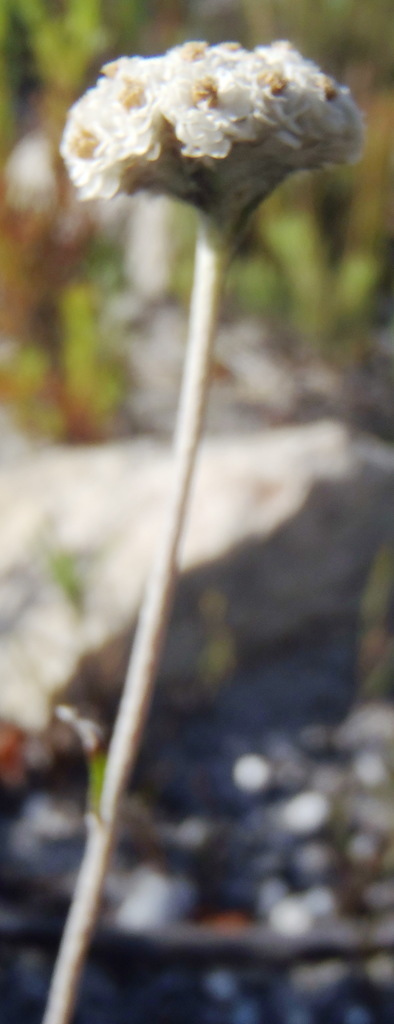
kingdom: Plantae
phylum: Tracheophyta
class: Magnoliopsida
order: Asterales
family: Asteraceae
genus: Anaxeton
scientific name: Anaxeton asperum
